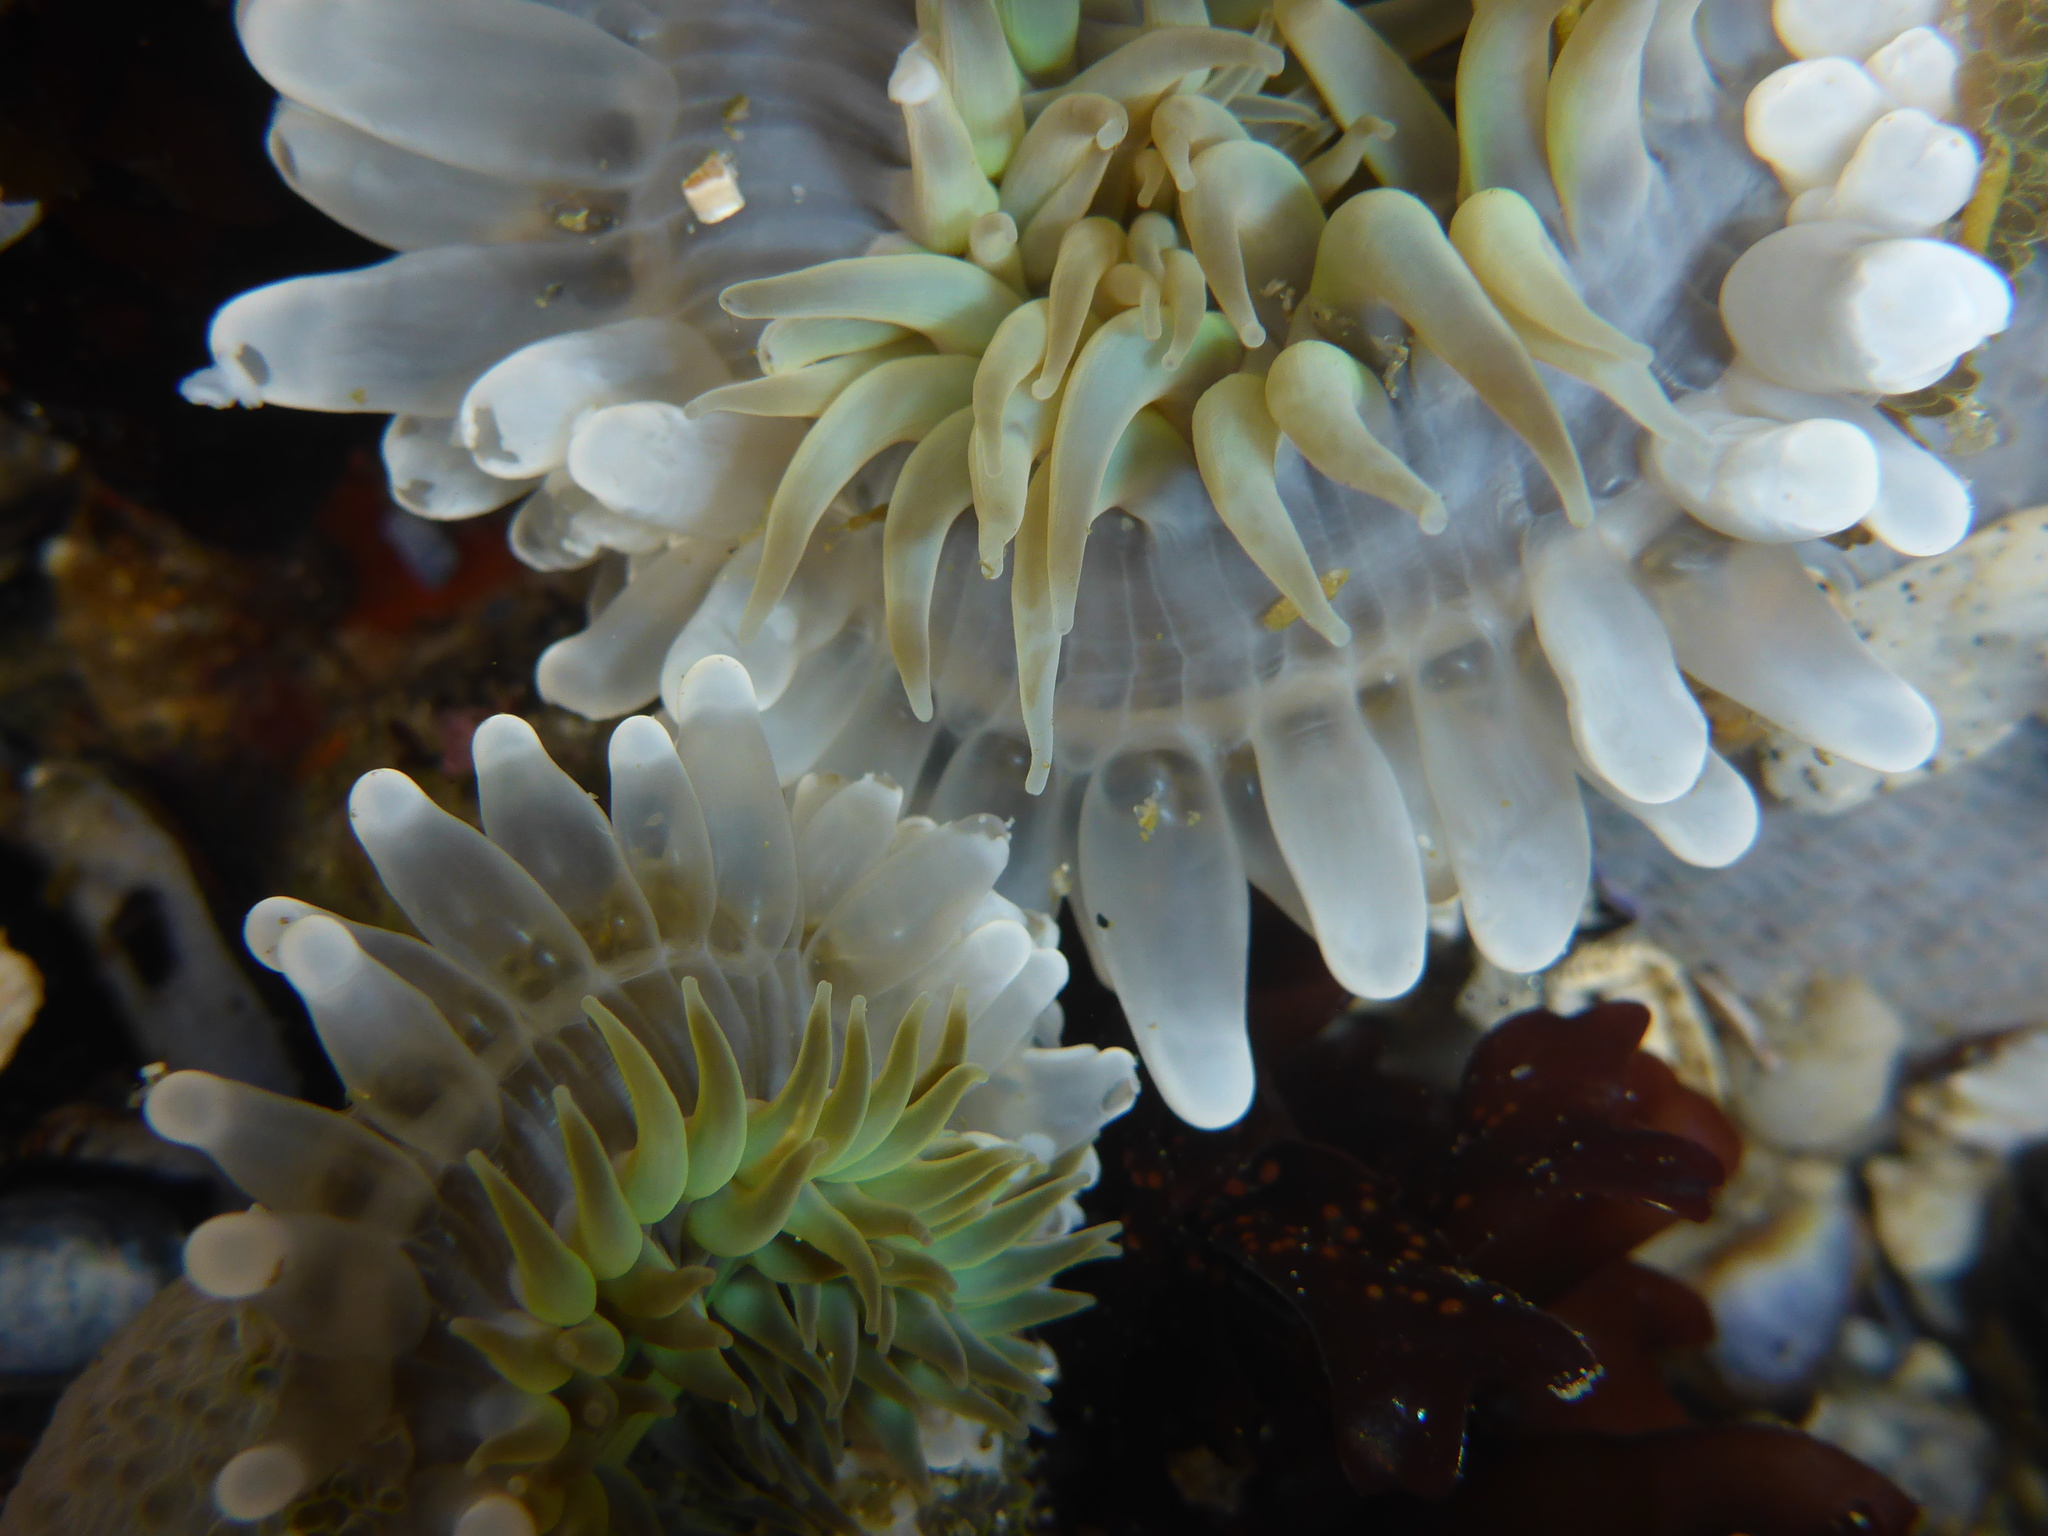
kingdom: Animalia
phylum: Cnidaria
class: Anthozoa
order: Actiniaria
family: Actiniidae
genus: Anthopleura
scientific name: Anthopleura sola
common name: Sun anemone
